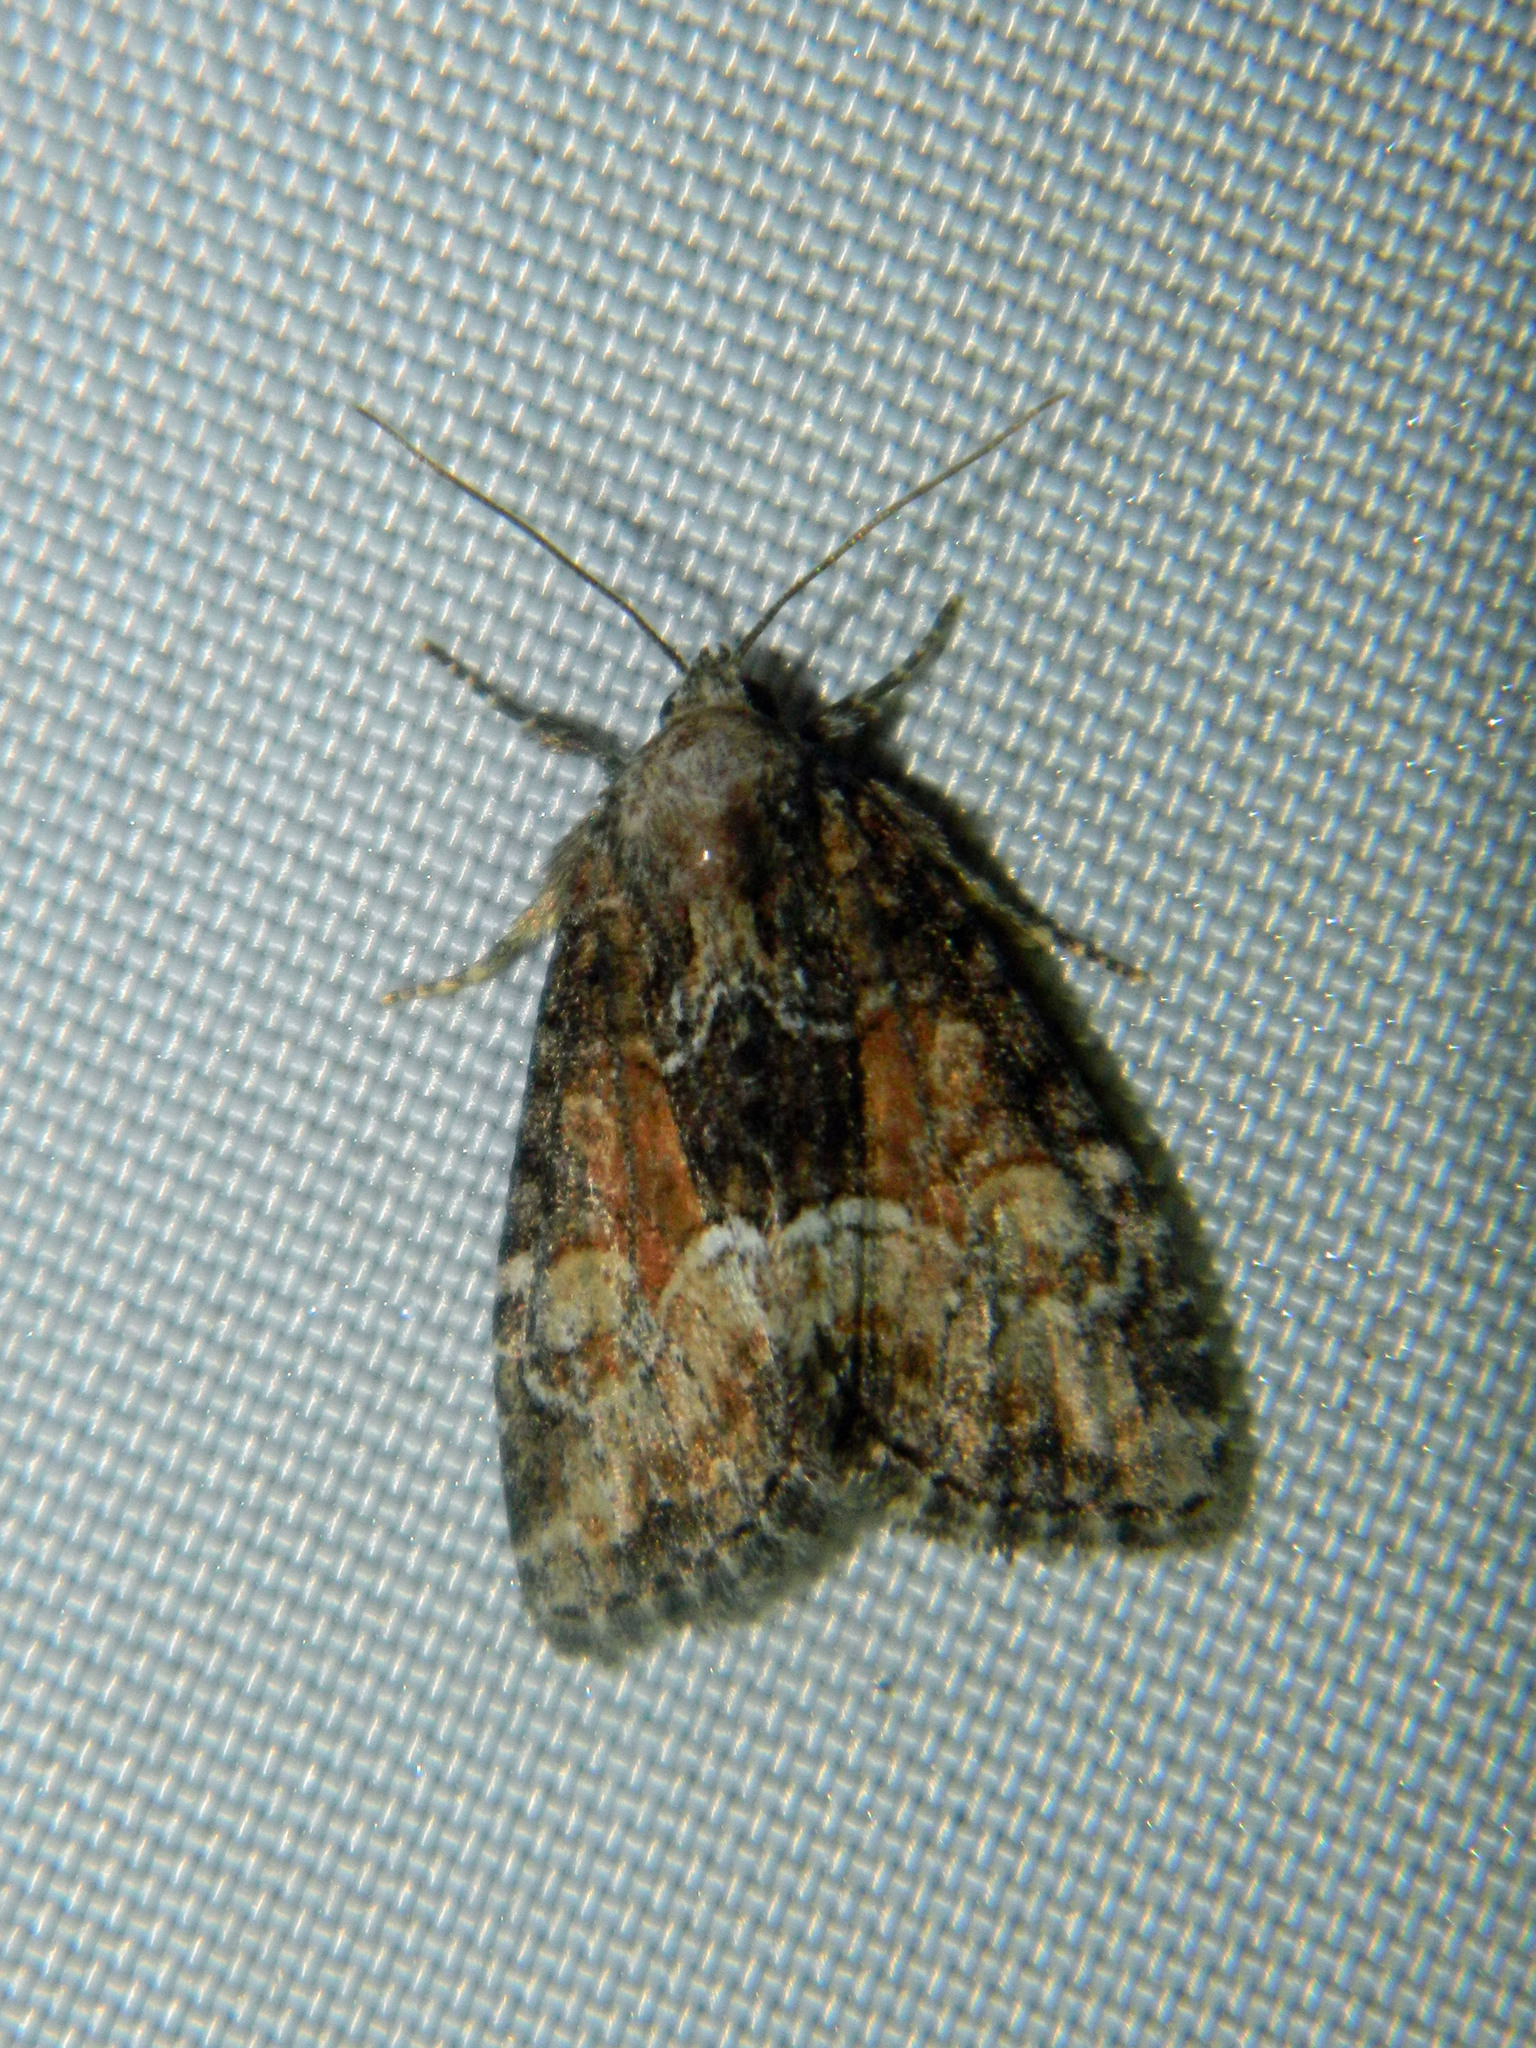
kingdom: Animalia
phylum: Arthropoda
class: Insecta
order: Lepidoptera
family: Noctuidae
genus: Neoligia
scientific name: Neoligia subjuncta
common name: Connected brocade
